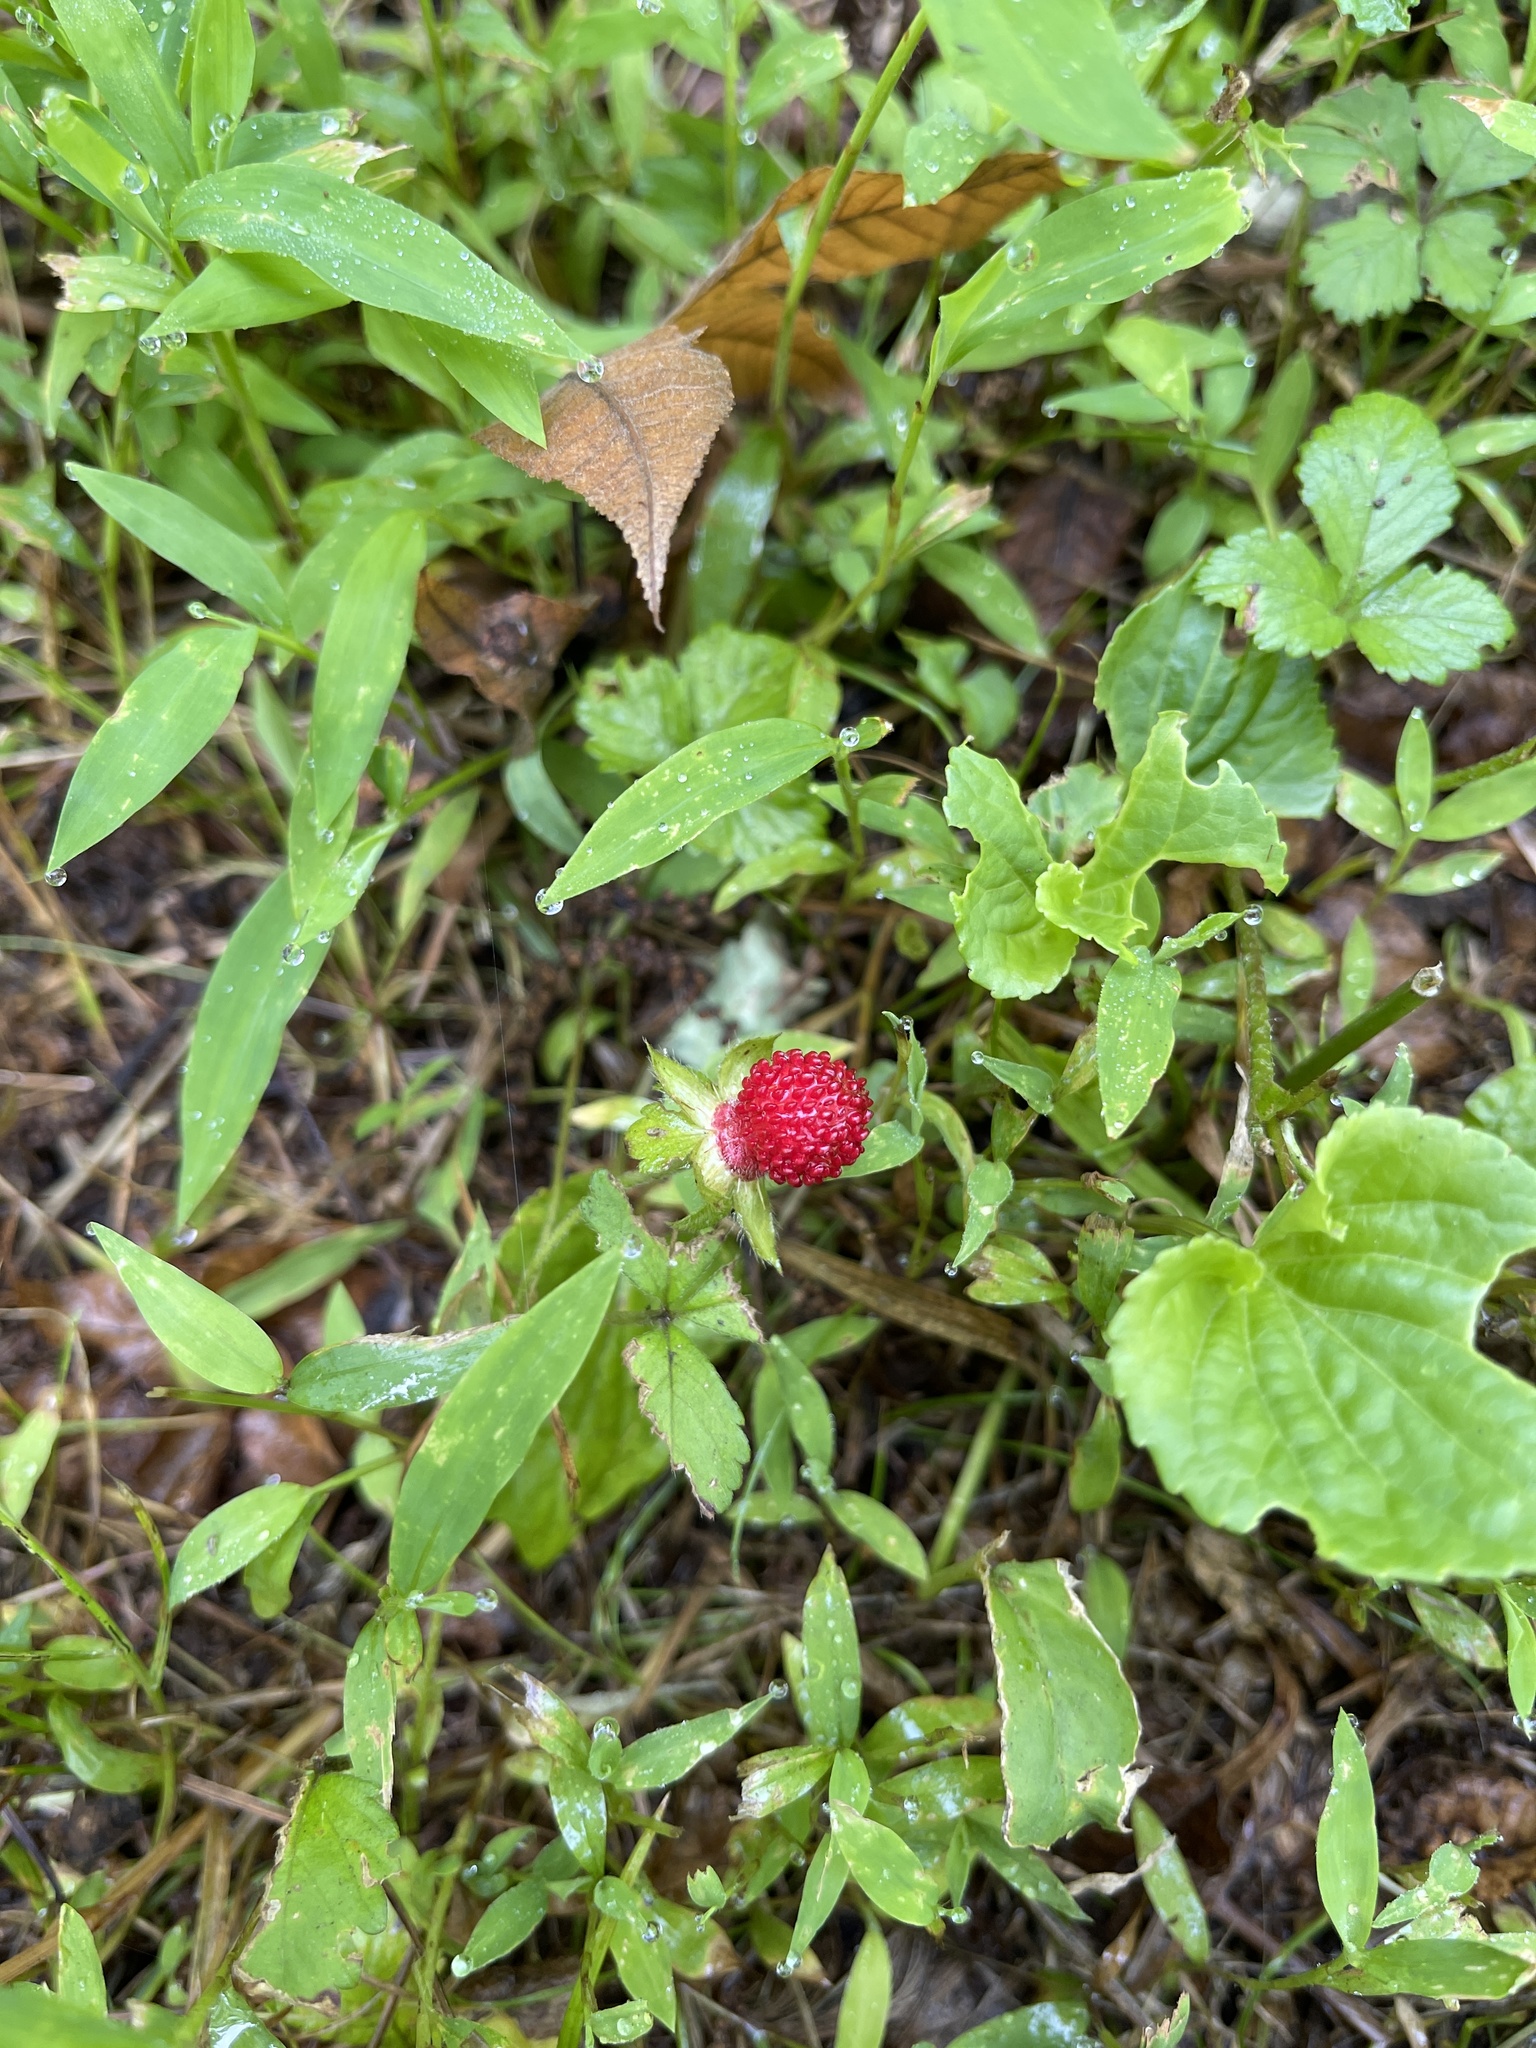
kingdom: Plantae
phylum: Tracheophyta
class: Magnoliopsida
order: Rosales
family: Rosaceae
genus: Potentilla
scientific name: Potentilla indica
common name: Yellow-flowered strawberry
